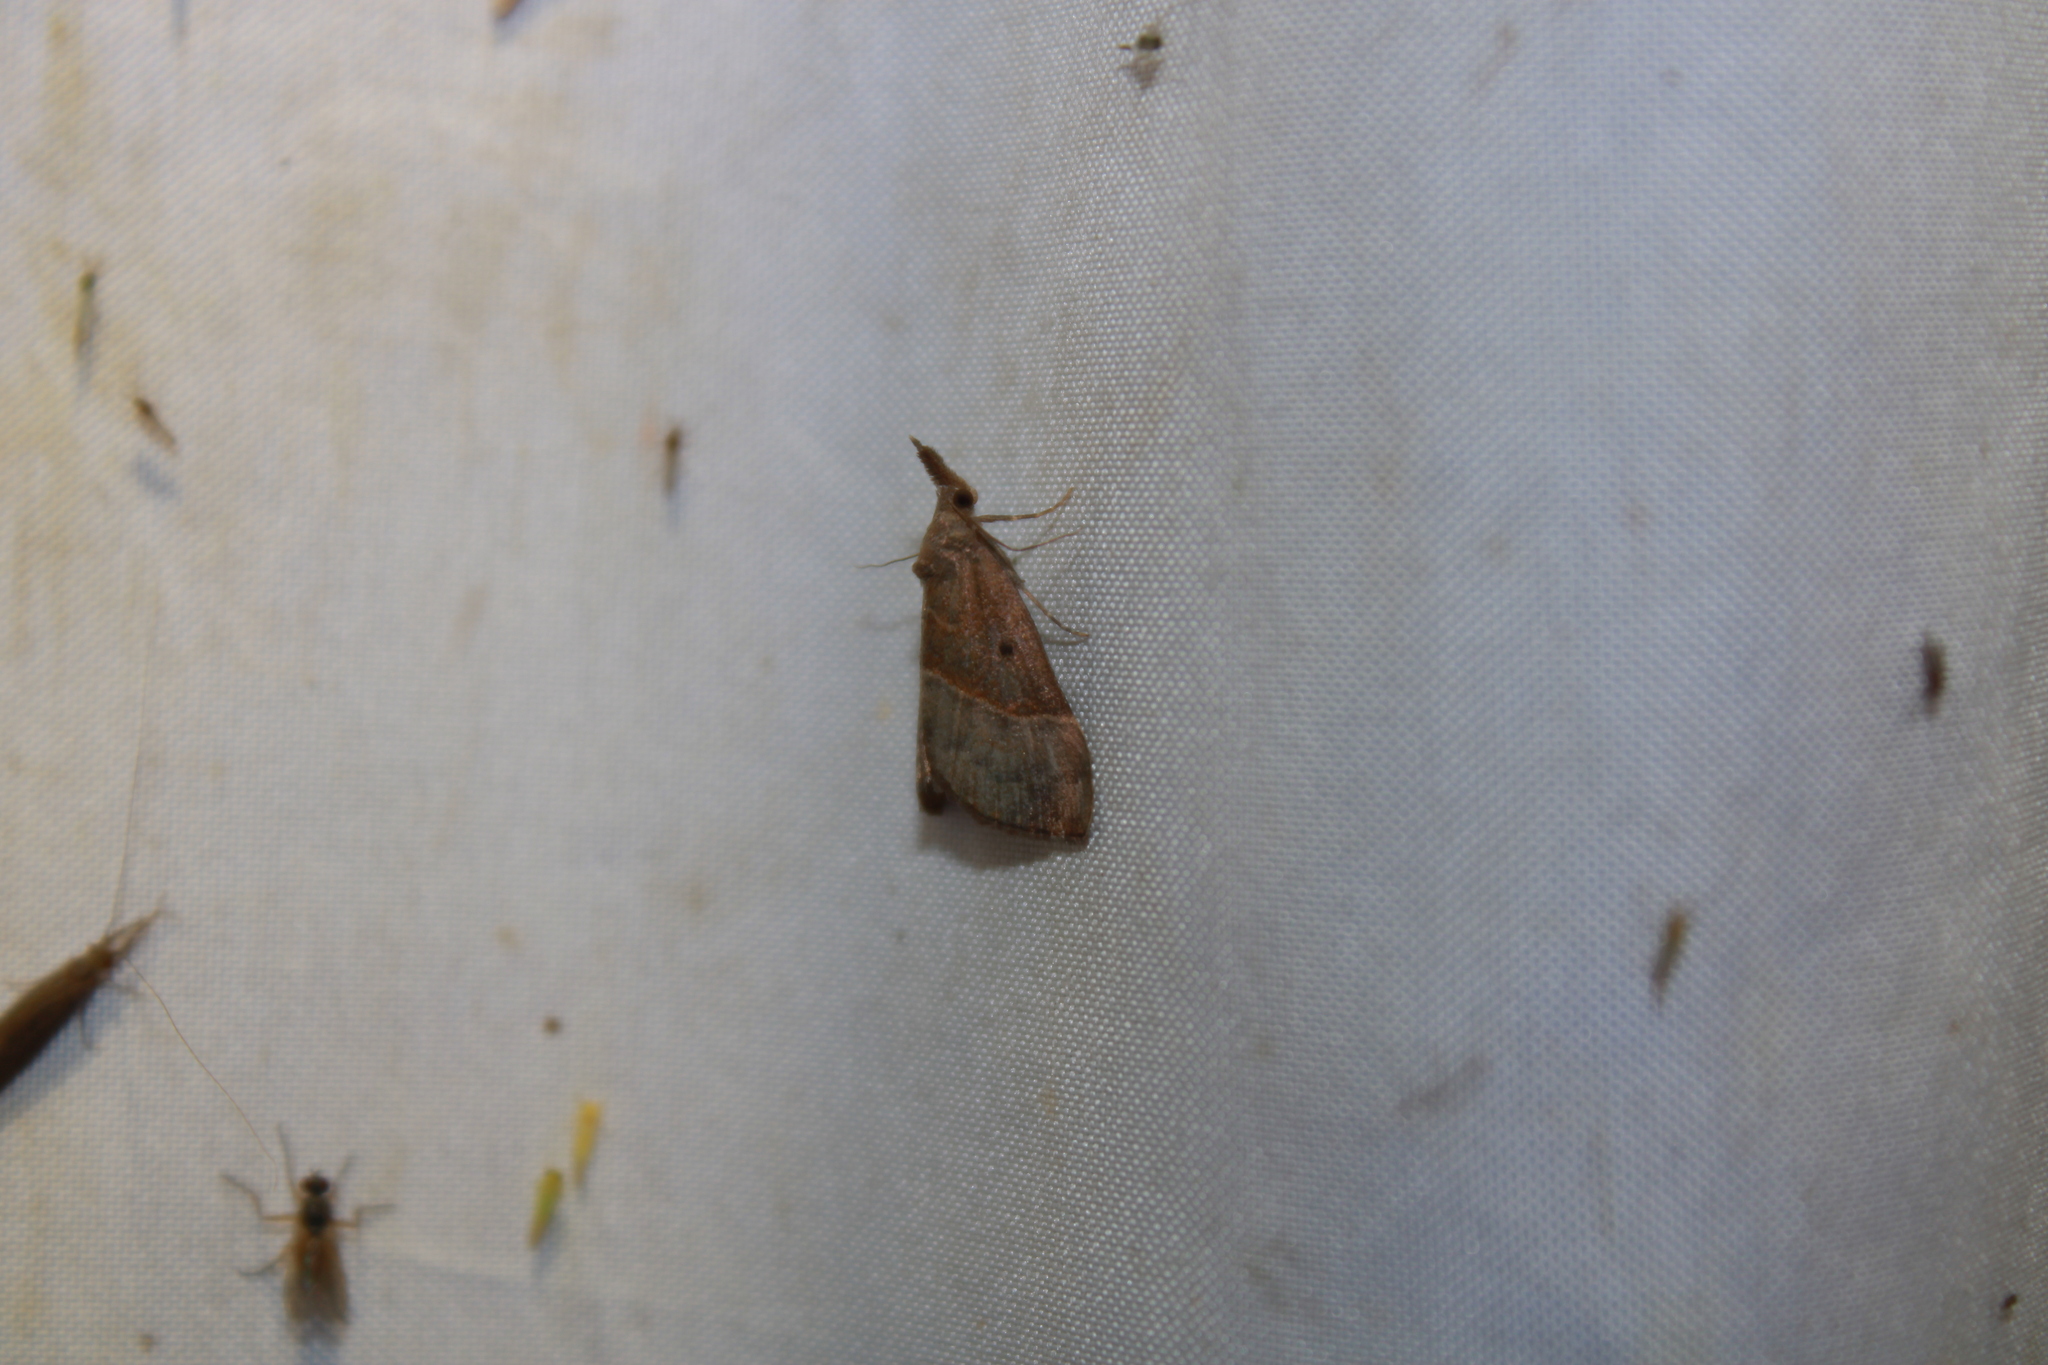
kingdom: Animalia
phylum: Arthropoda
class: Insecta
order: Lepidoptera
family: Erebidae
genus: Hypena
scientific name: Hypena eductalis
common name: Red-footed snout
